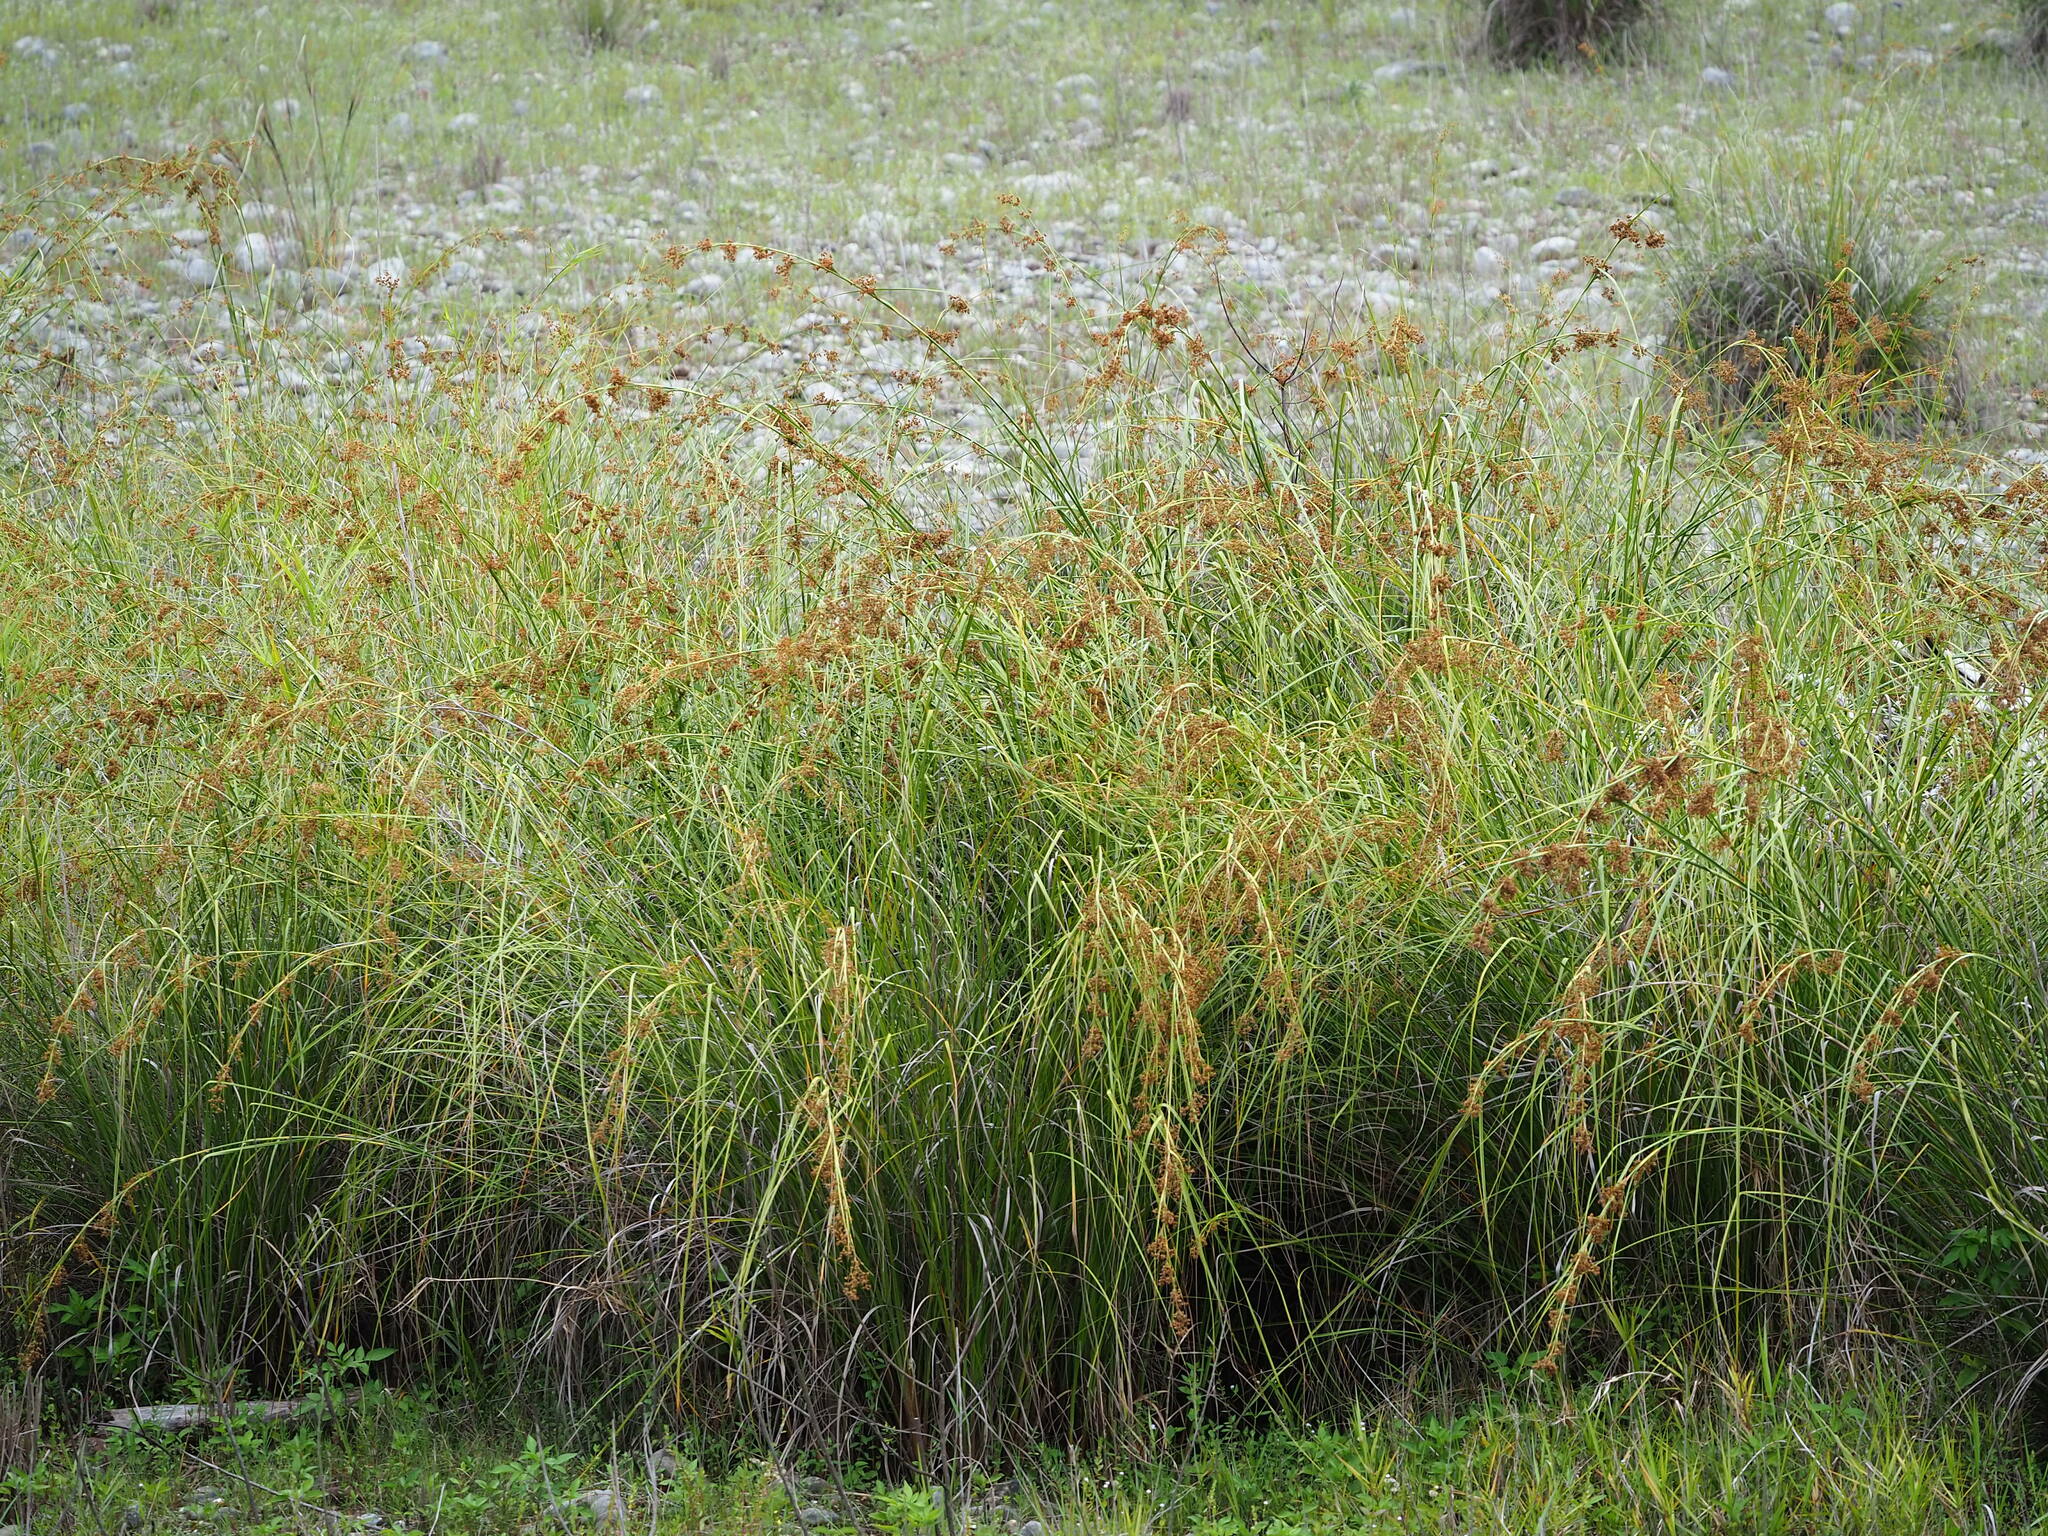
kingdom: Plantae
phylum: Tracheophyta
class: Liliopsida
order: Poales
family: Cyperaceae
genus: Cladium
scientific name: Cladium mariscus
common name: Great fen-sedge
